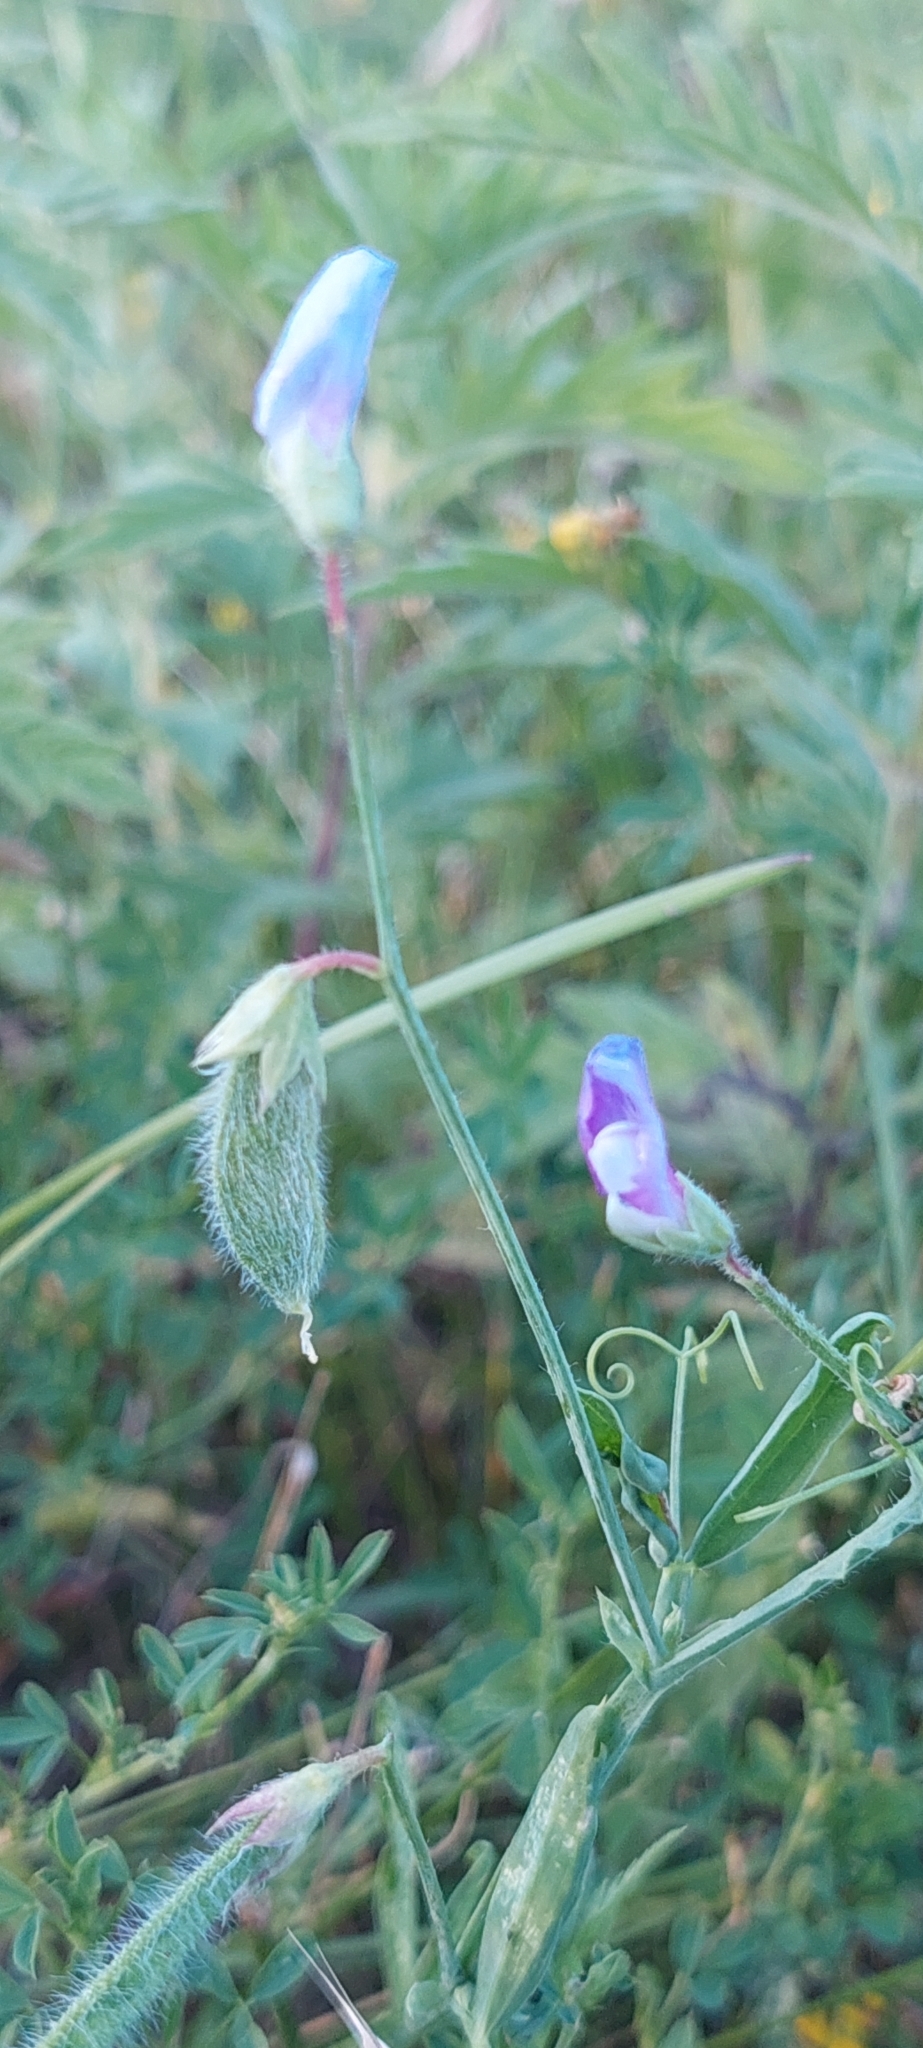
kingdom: Plantae
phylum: Tracheophyta
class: Magnoliopsida
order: Fabales
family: Fabaceae
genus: Lathyrus
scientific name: Lathyrus hirsutus
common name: Hairy vetchling
